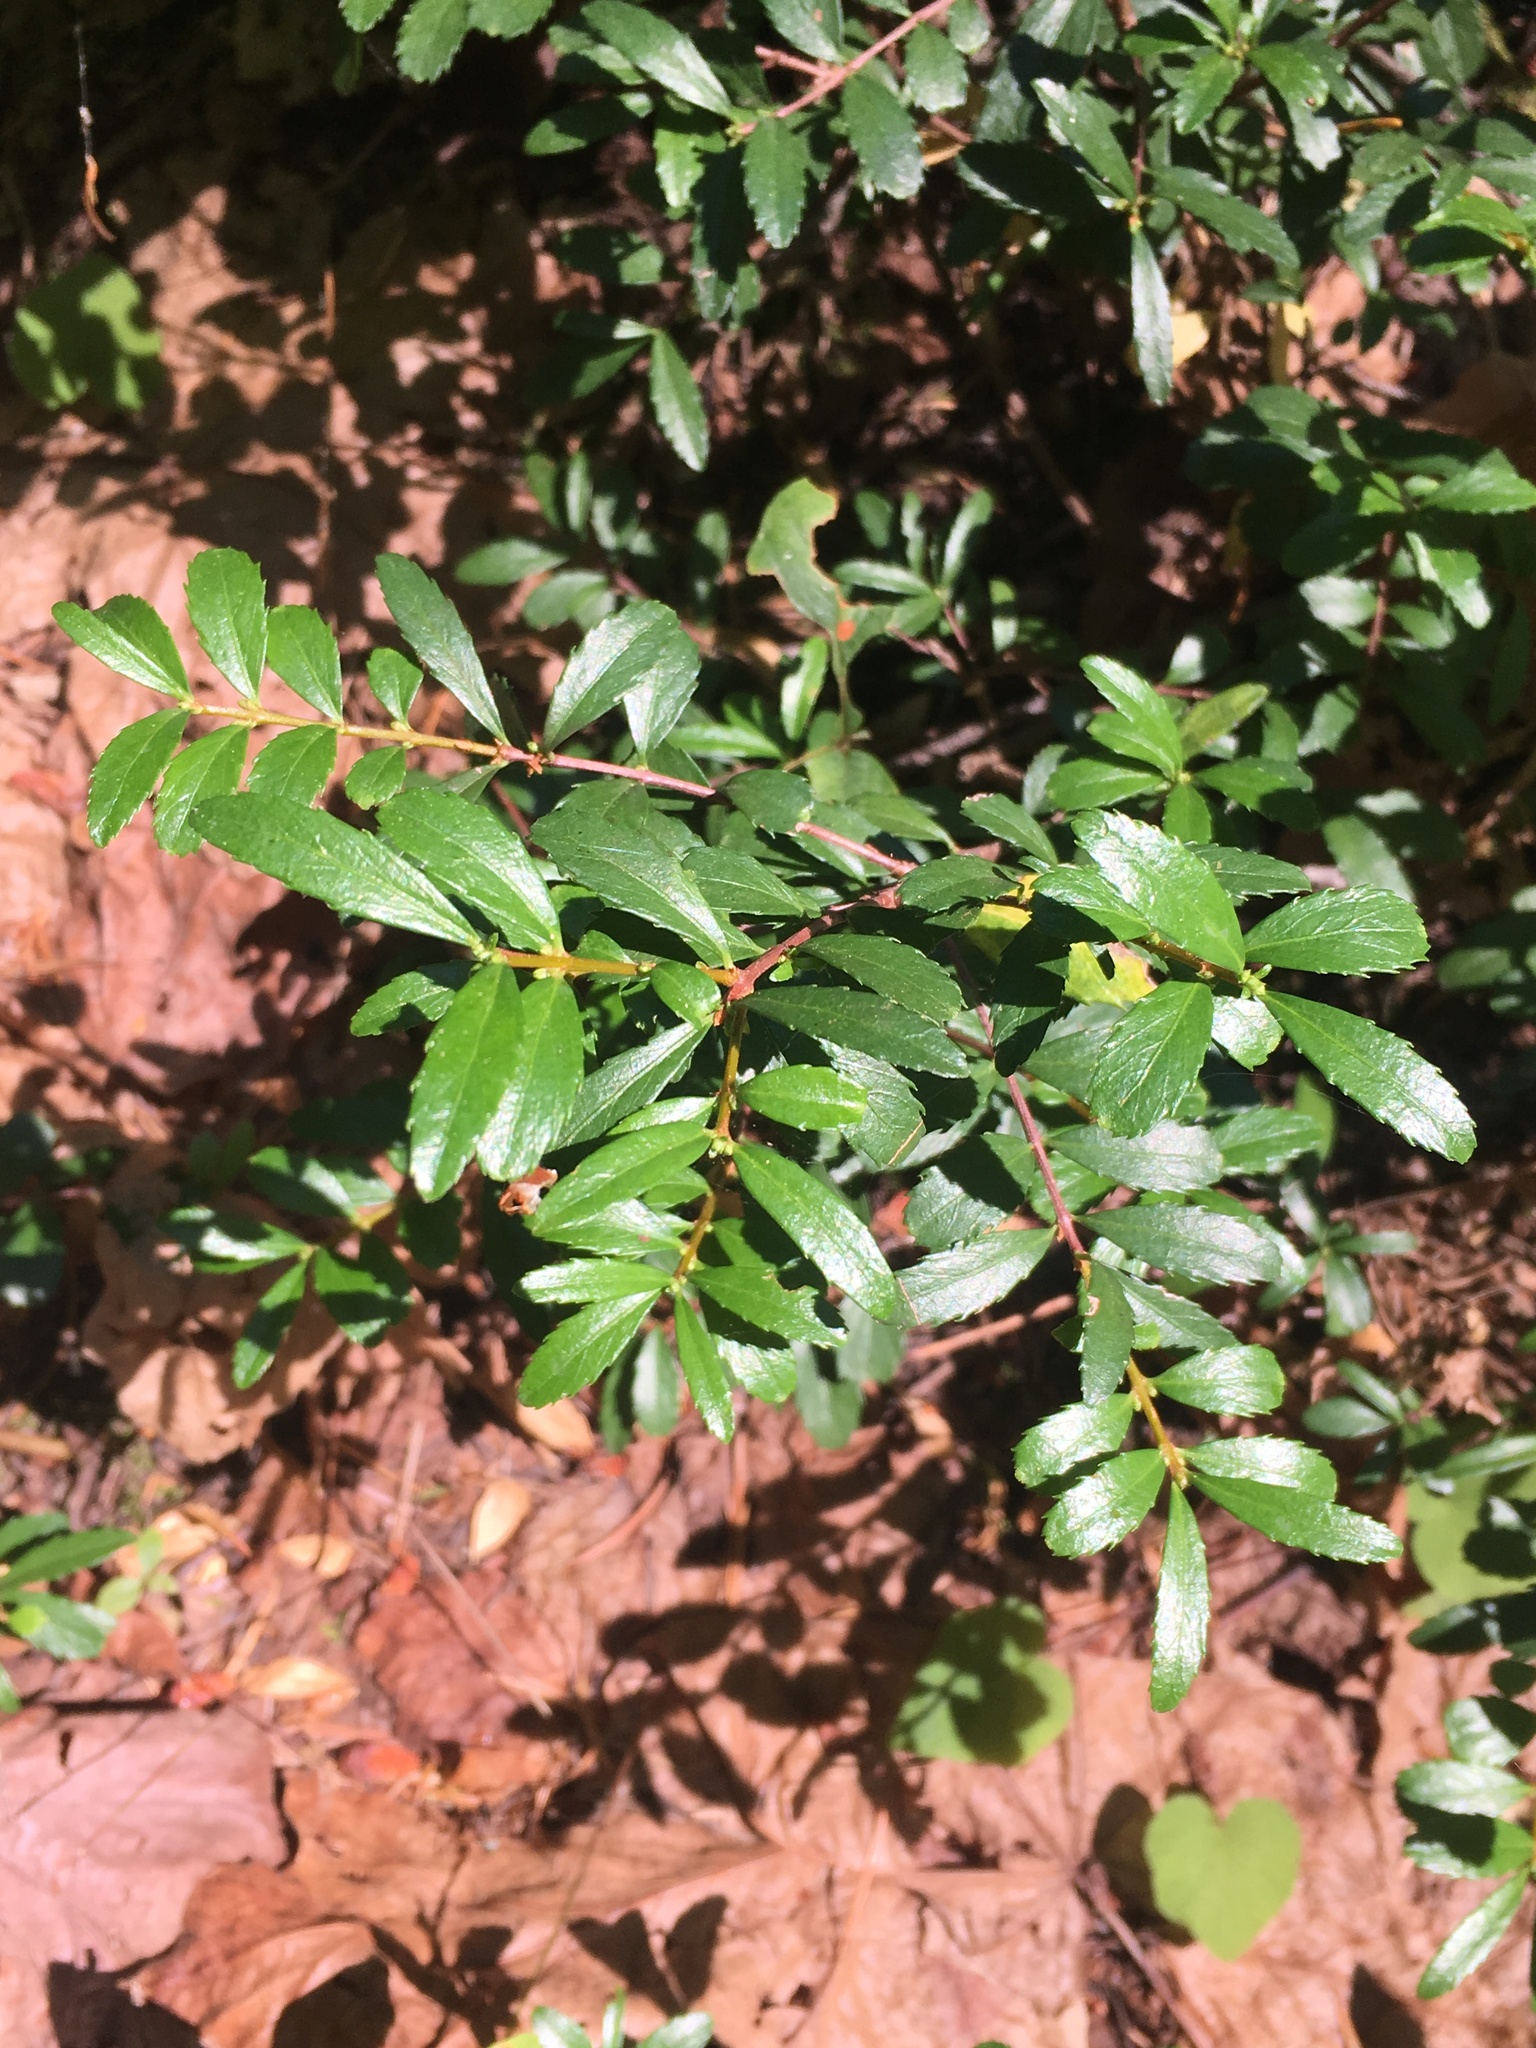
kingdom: Plantae
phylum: Tracheophyta
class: Magnoliopsida
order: Celastrales
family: Celastraceae
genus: Paxistima
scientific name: Paxistima myrsinites
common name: Mountain-lover
